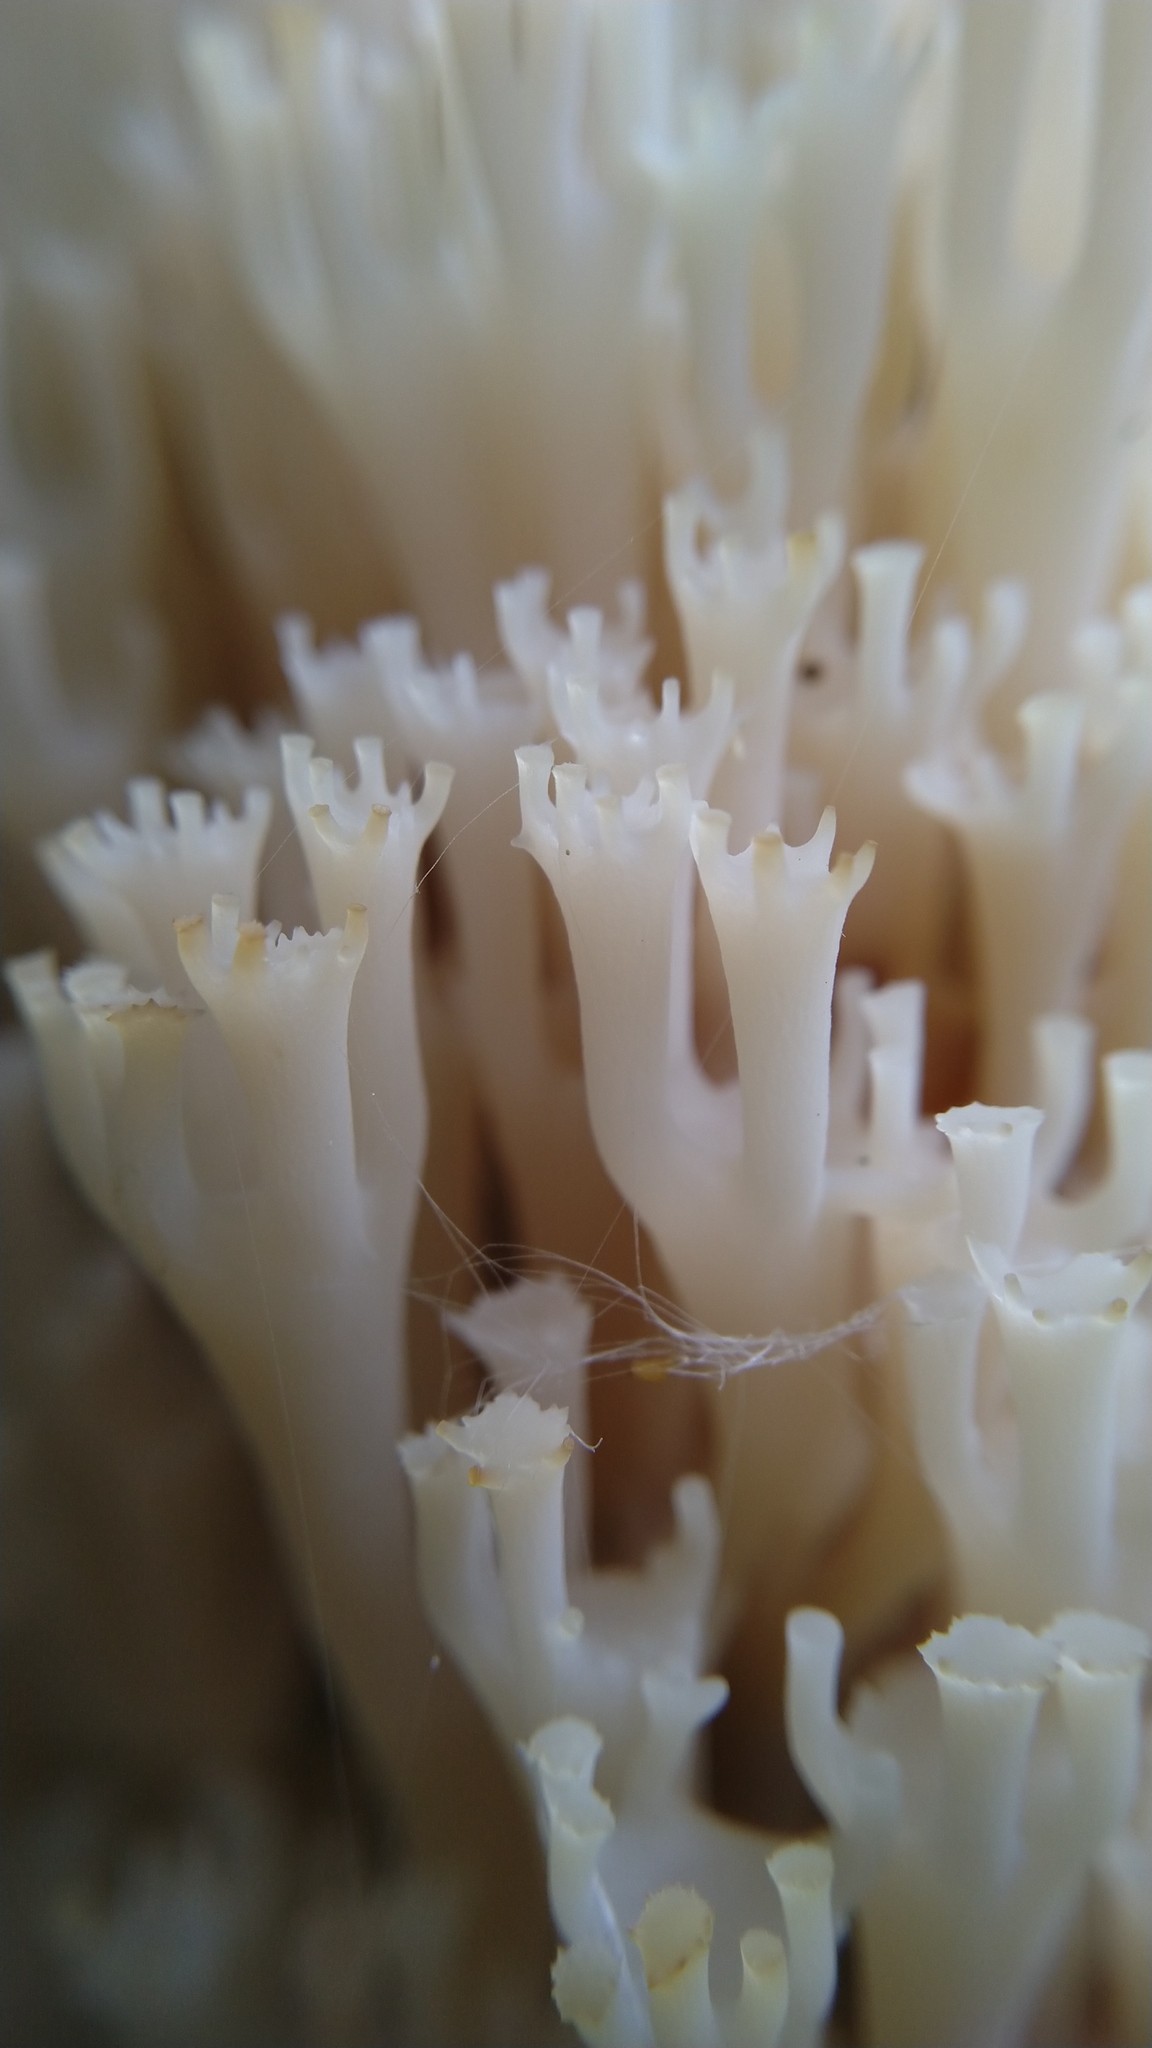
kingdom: Fungi
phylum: Basidiomycota
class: Agaricomycetes
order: Russulales
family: Auriscalpiaceae
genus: Artomyces
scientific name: Artomyces pyxidatus
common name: Crown-tipped coral fungus
